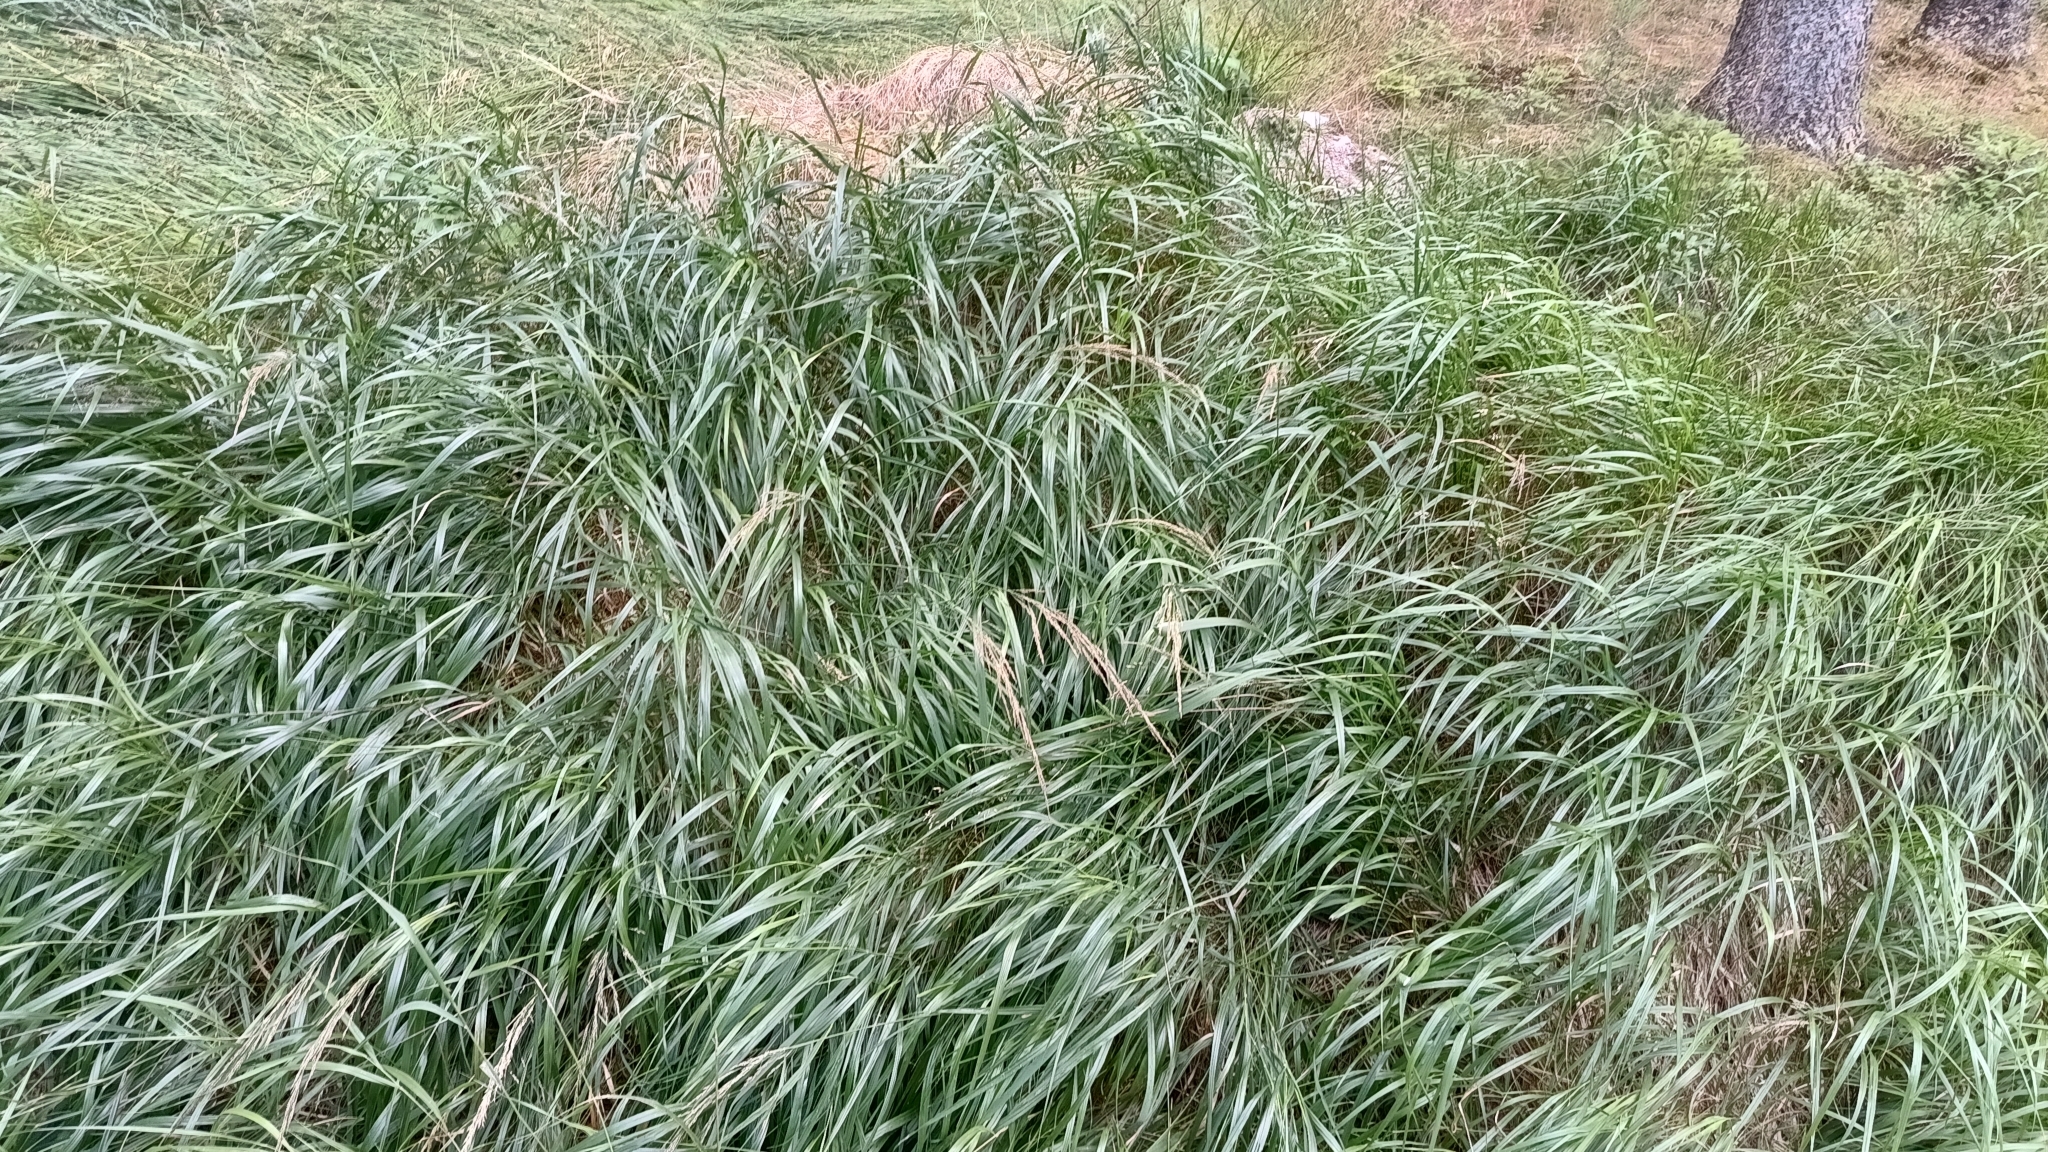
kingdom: Plantae
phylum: Tracheophyta
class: Liliopsida
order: Poales
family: Poaceae
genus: Calamagrostis
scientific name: Calamagrostis villosa
